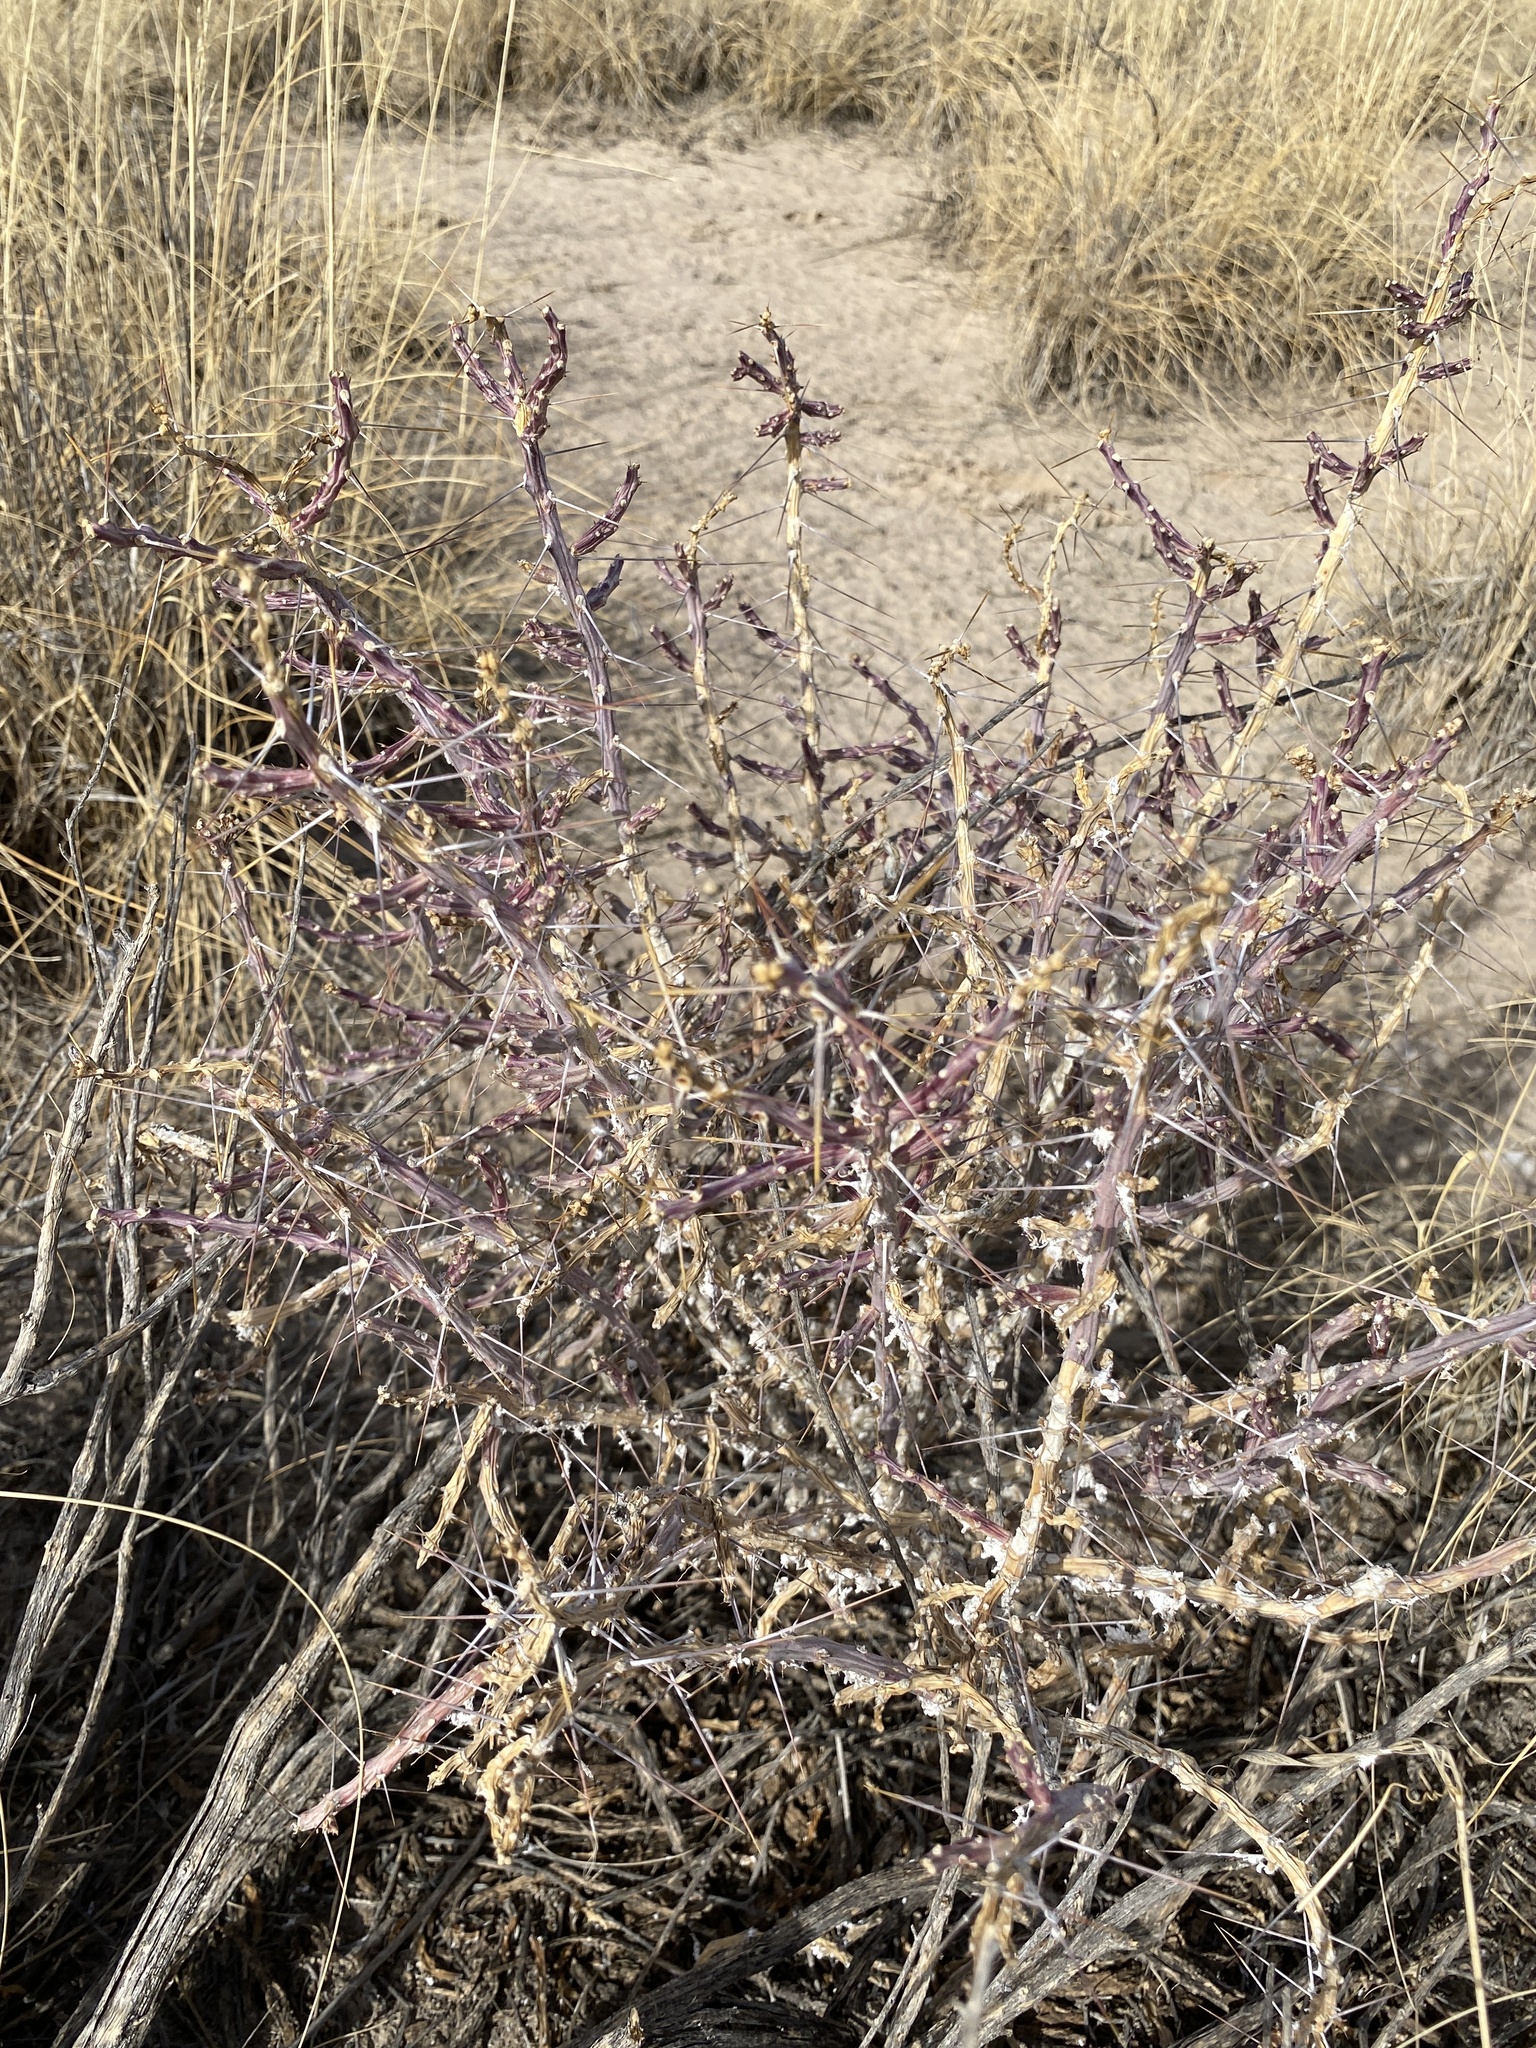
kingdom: Plantae
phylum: Tracheophyta
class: Magnoliopsida
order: Caryophyllales
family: Cactaceae
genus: Cylindropuntia
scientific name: Cylindropuntia leptocaulis
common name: Christmas cactus
